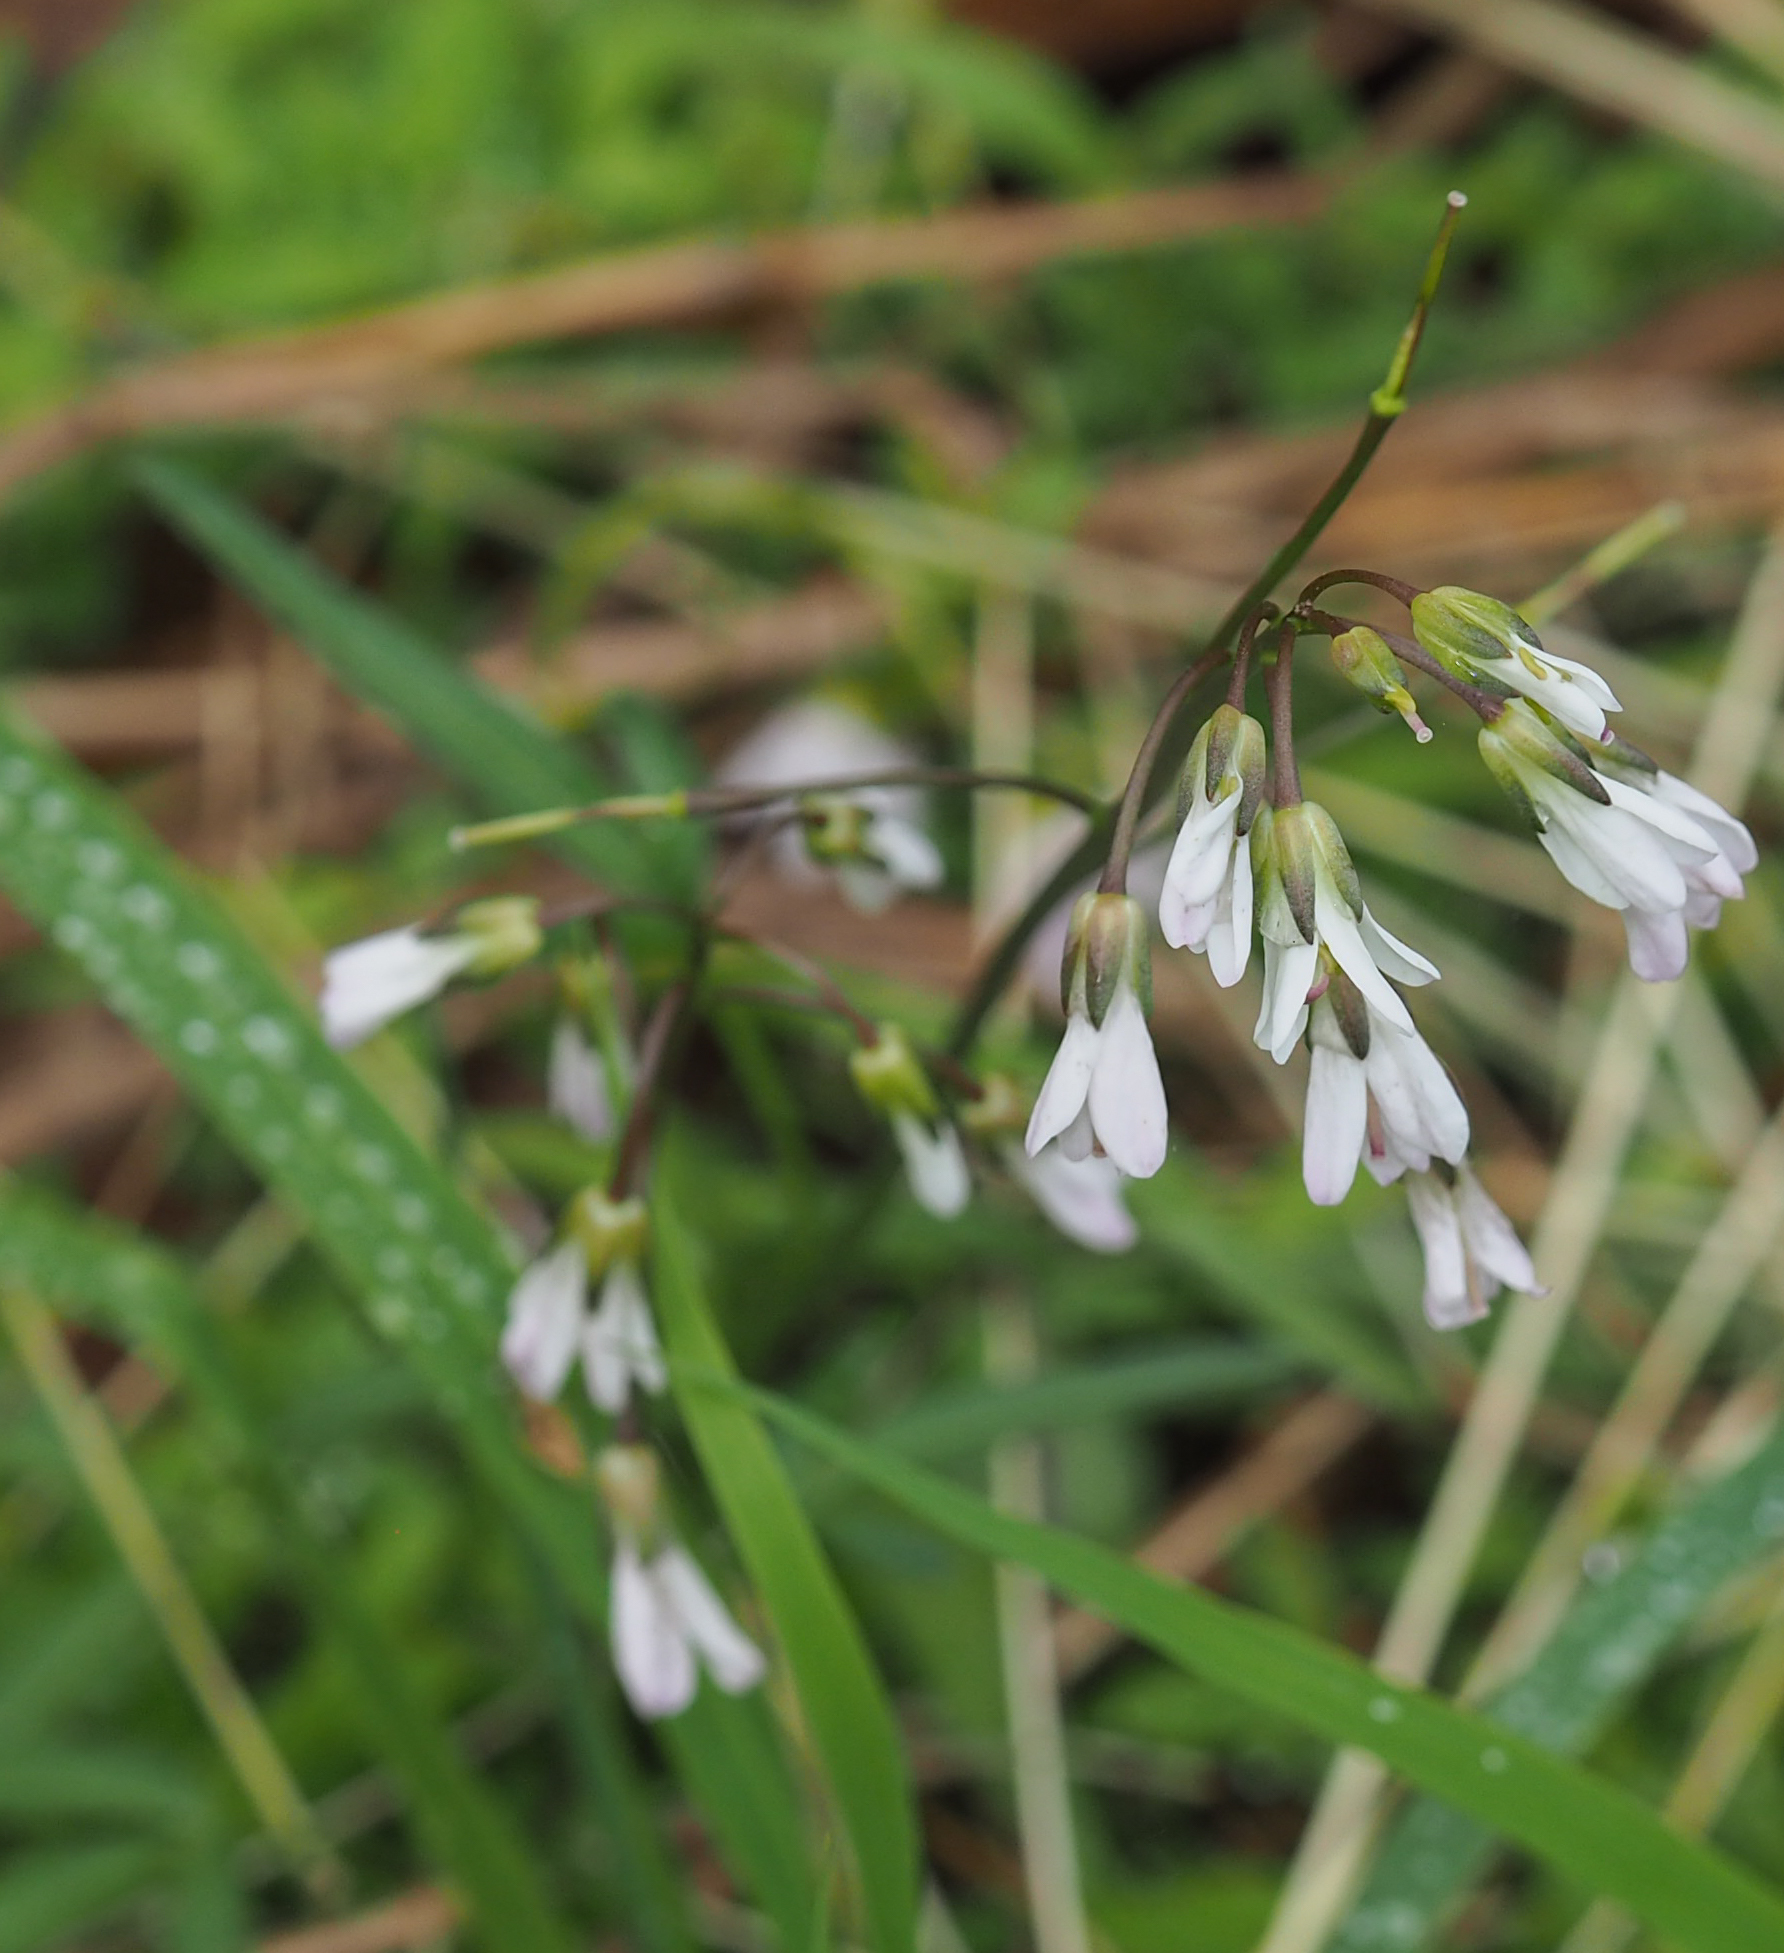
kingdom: Plantae
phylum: Tracheophyta
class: Magnoliopsida
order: Brassicales
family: Brassicaceae
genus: Cardamine
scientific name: Cardamine concatenata
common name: Cut-leaf toothcup
